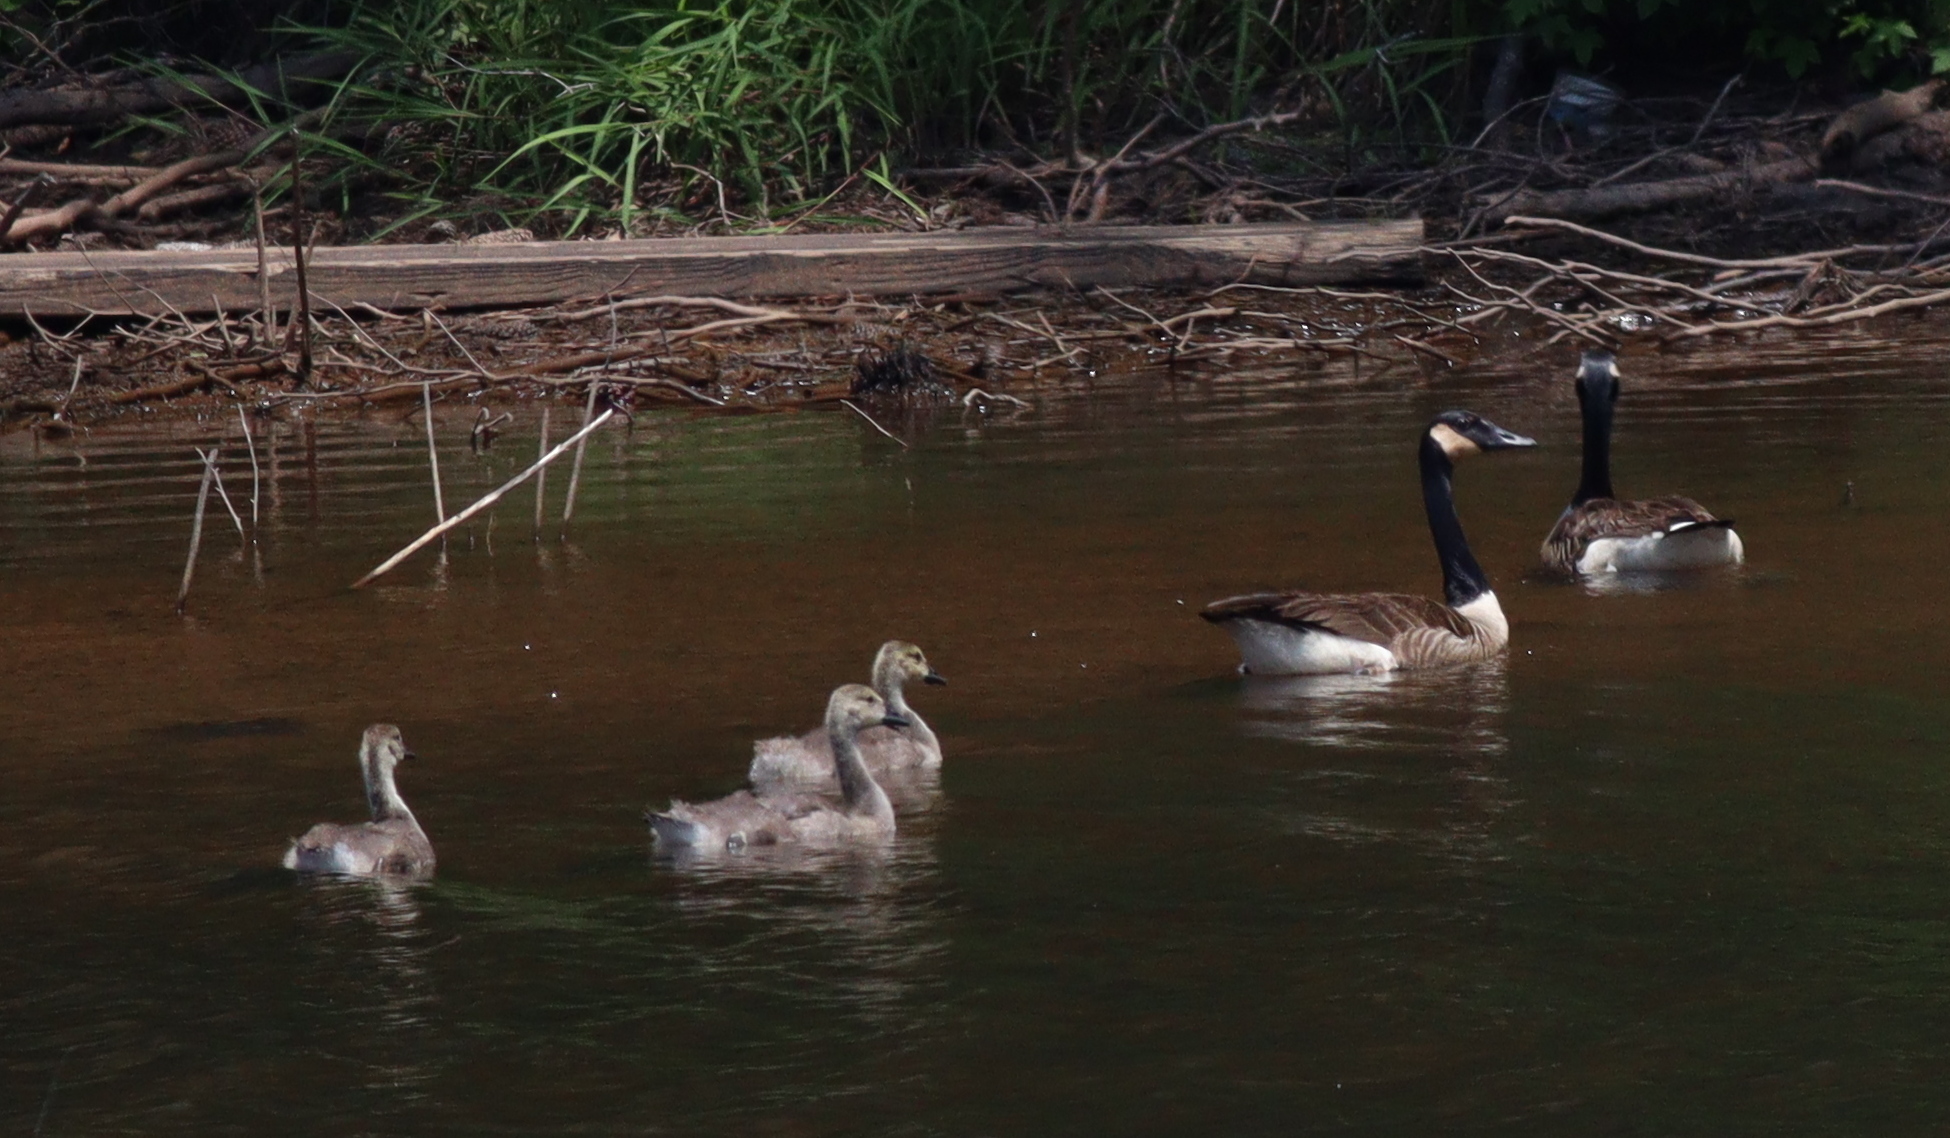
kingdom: Animalia
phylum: Chordata
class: Aves
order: Anseriformes
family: Anatidae
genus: Branta
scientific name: Branta canadensis
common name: Canada goose
